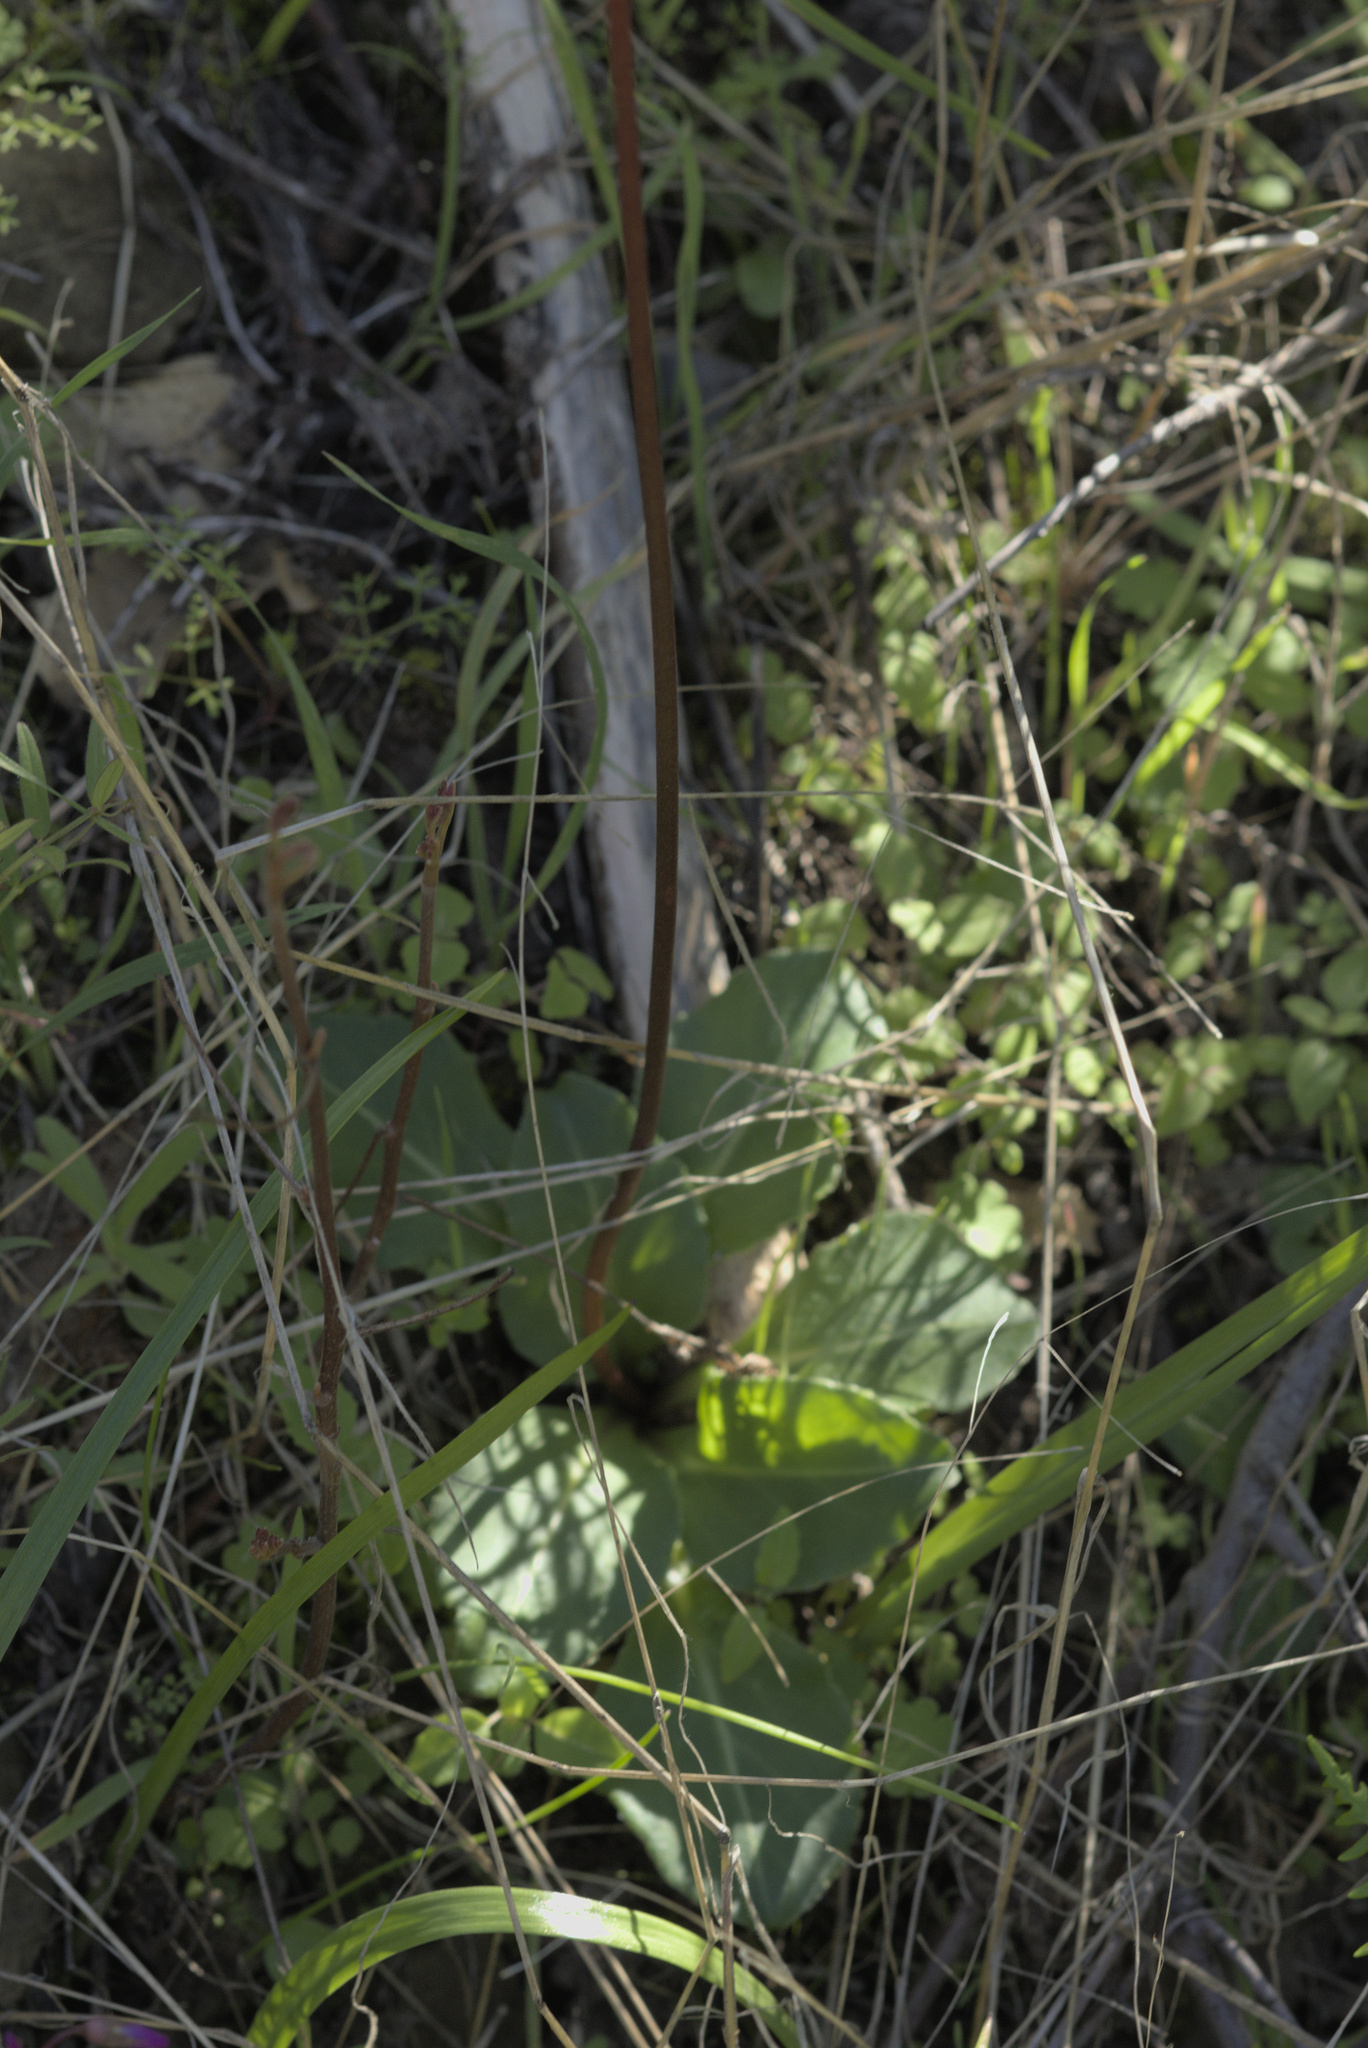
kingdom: Plantae
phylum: Tracheophyta
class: Magnoliopsida
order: Ericales
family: Primulaceae
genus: Dodecatheon
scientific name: Dodecatheon hendersonii
